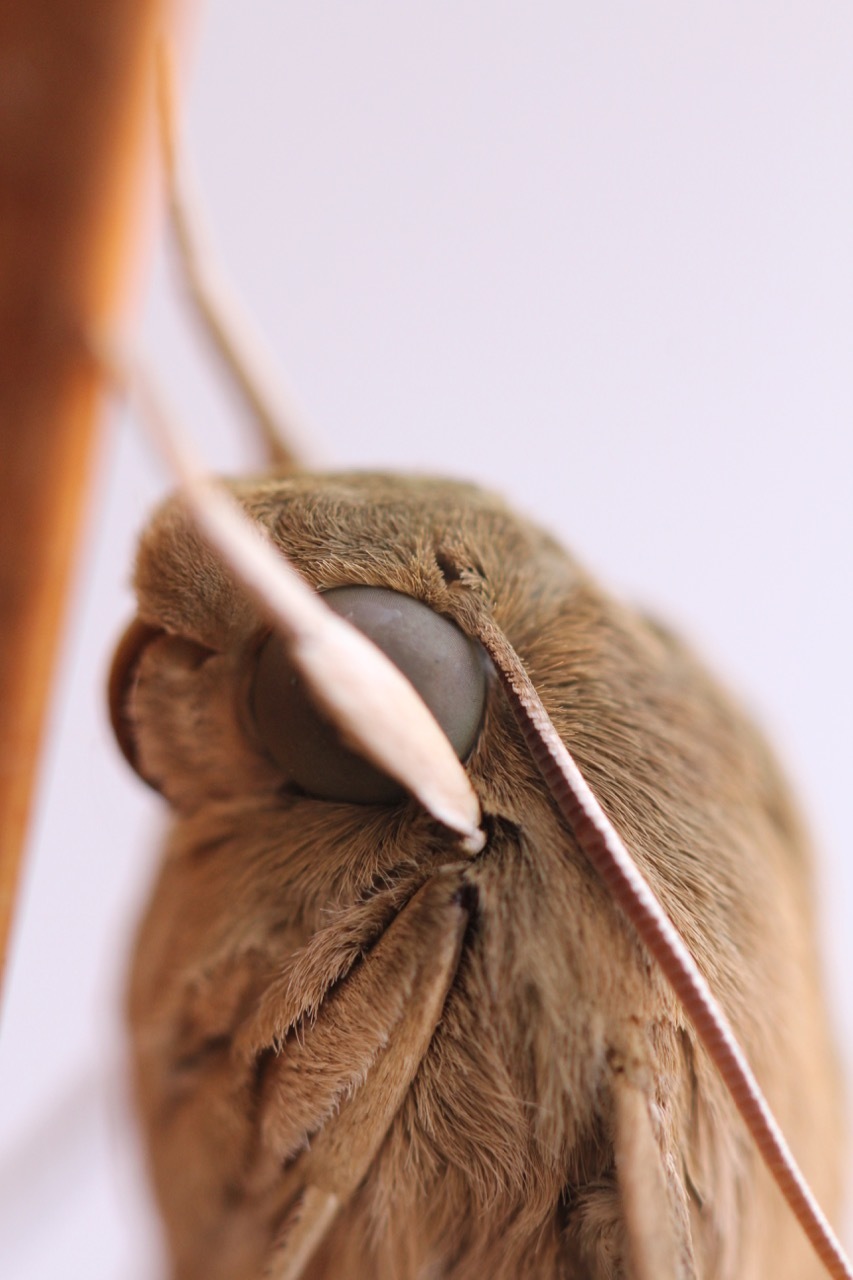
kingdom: Animalia
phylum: Arthropoda
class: Insecta
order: Lepidoptera
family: Sphingidae
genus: Theretra
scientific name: Theretra latreillii
